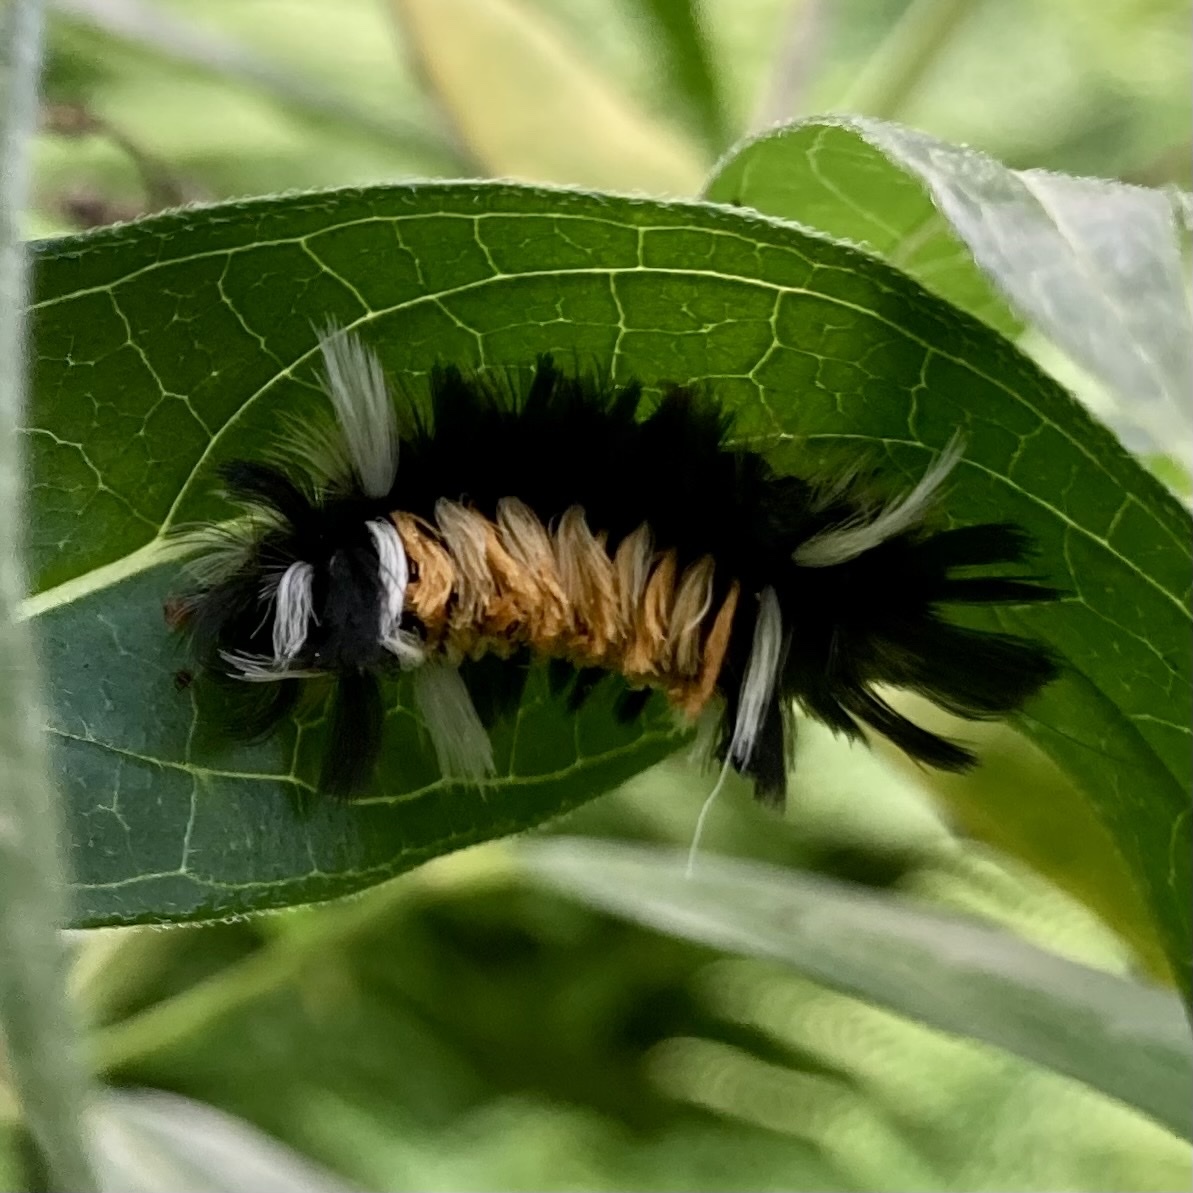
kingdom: Animalia
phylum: Arthropoda
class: Insecta
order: Lepidoptera
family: Erebidae
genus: Euchaetes
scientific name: Euchaetes egle
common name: Milkweed tussock moth
